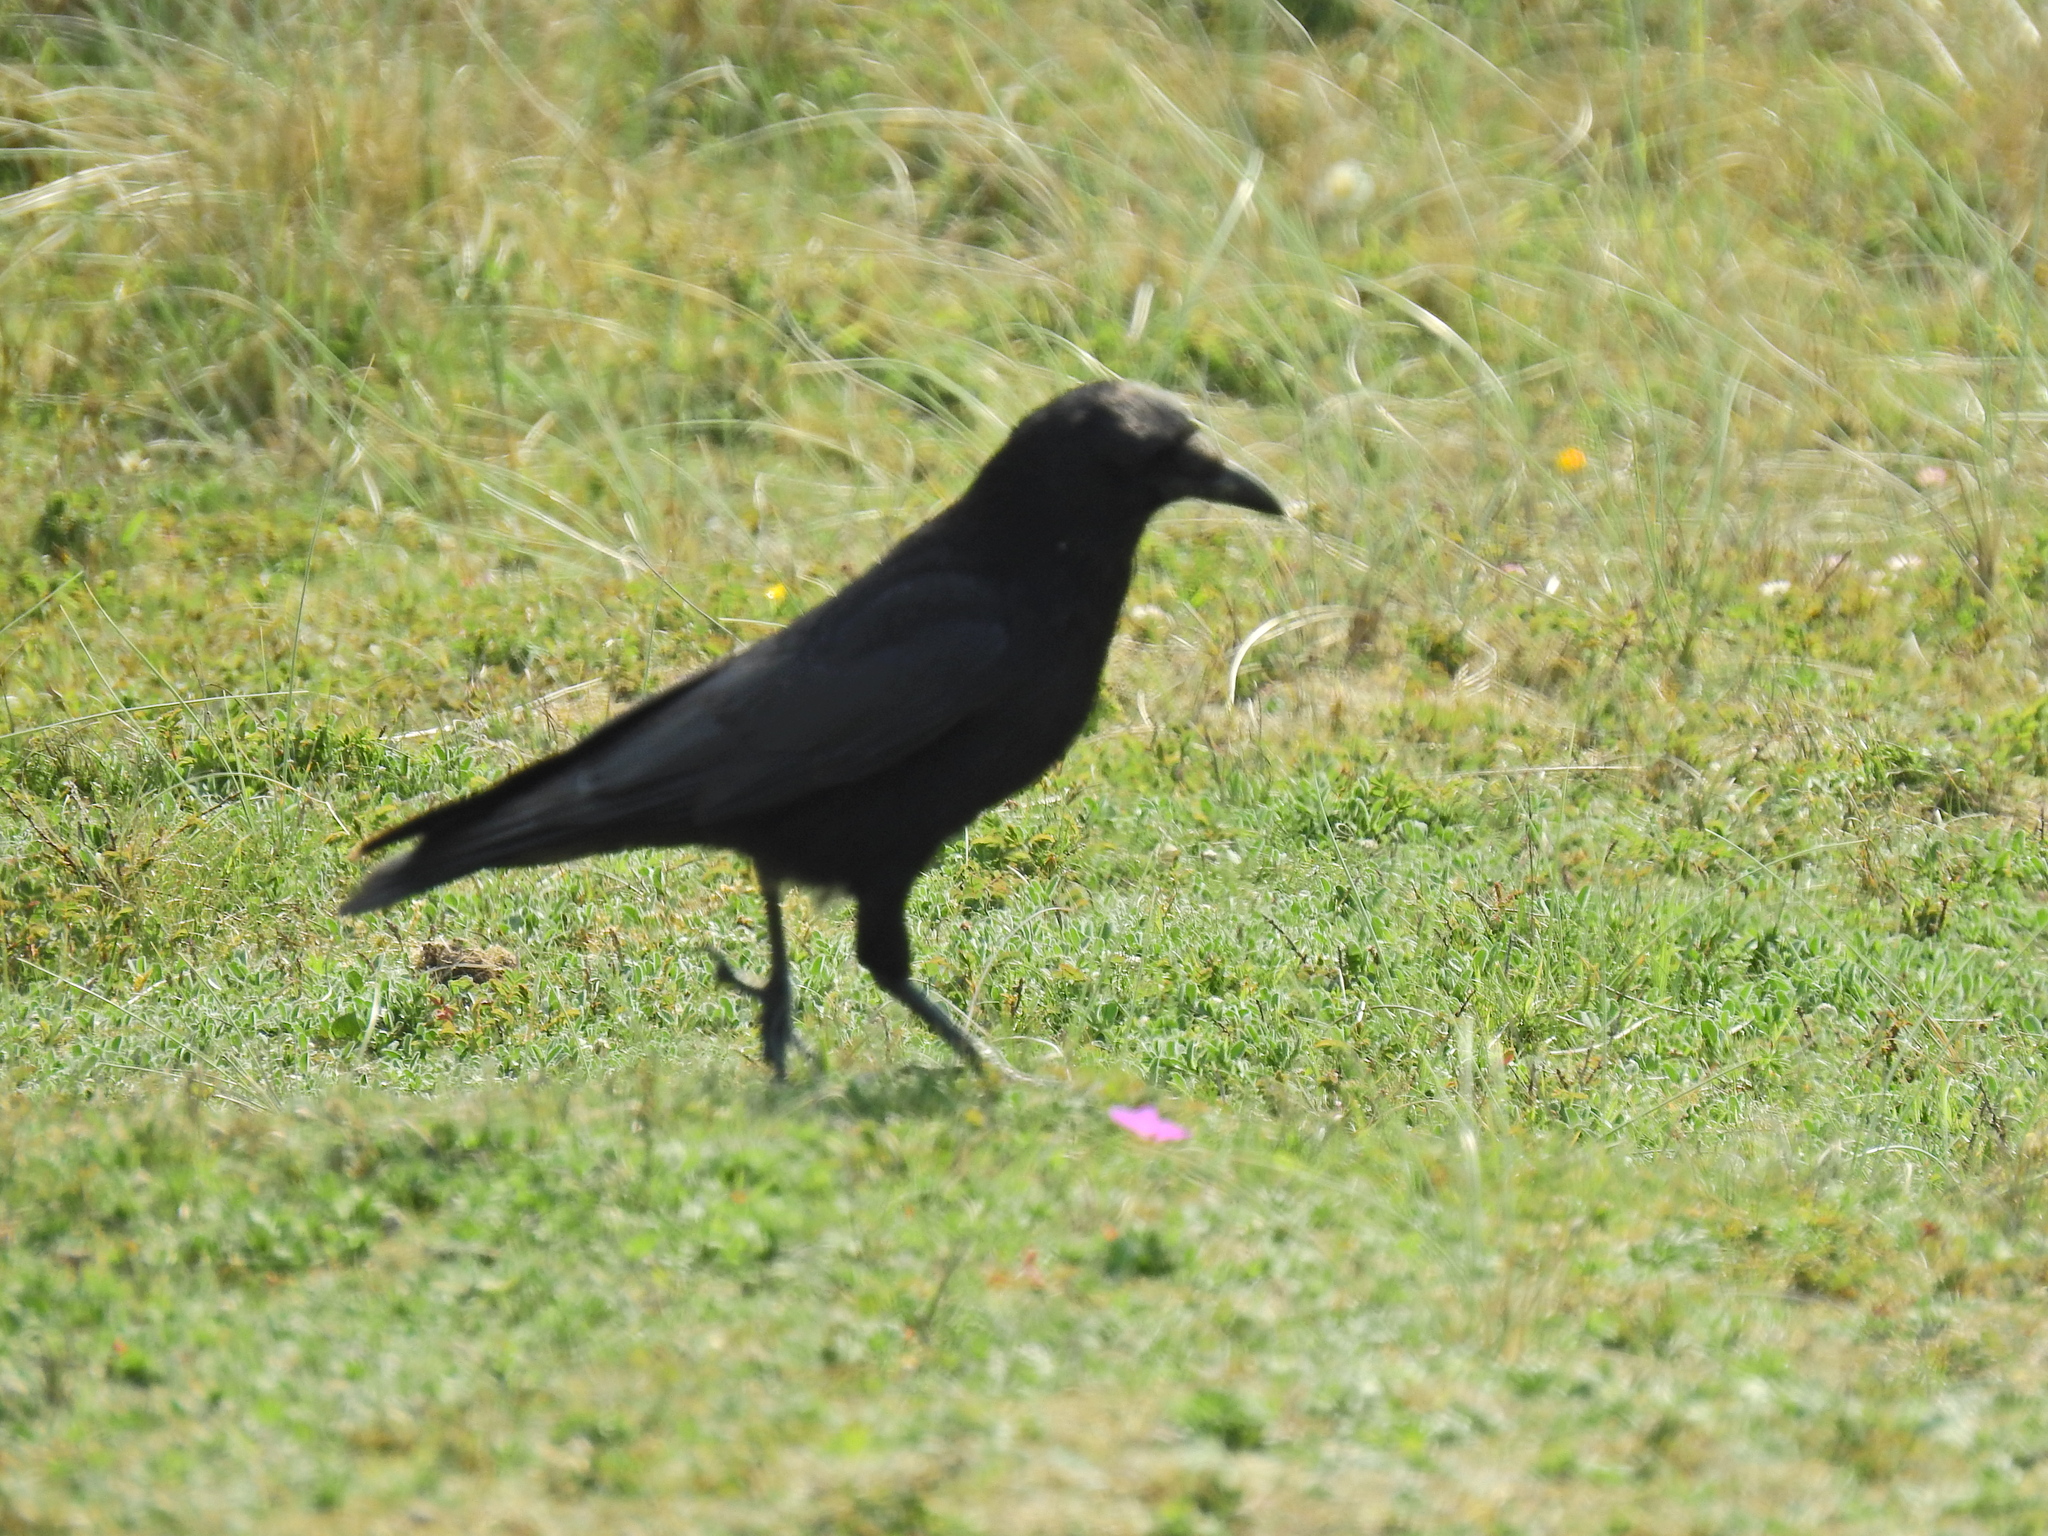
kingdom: Animalia
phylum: Chordata
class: Aves
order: Passeriformes
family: Corvidae
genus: Corvus
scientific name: Corvus corone
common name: Carrion crow
